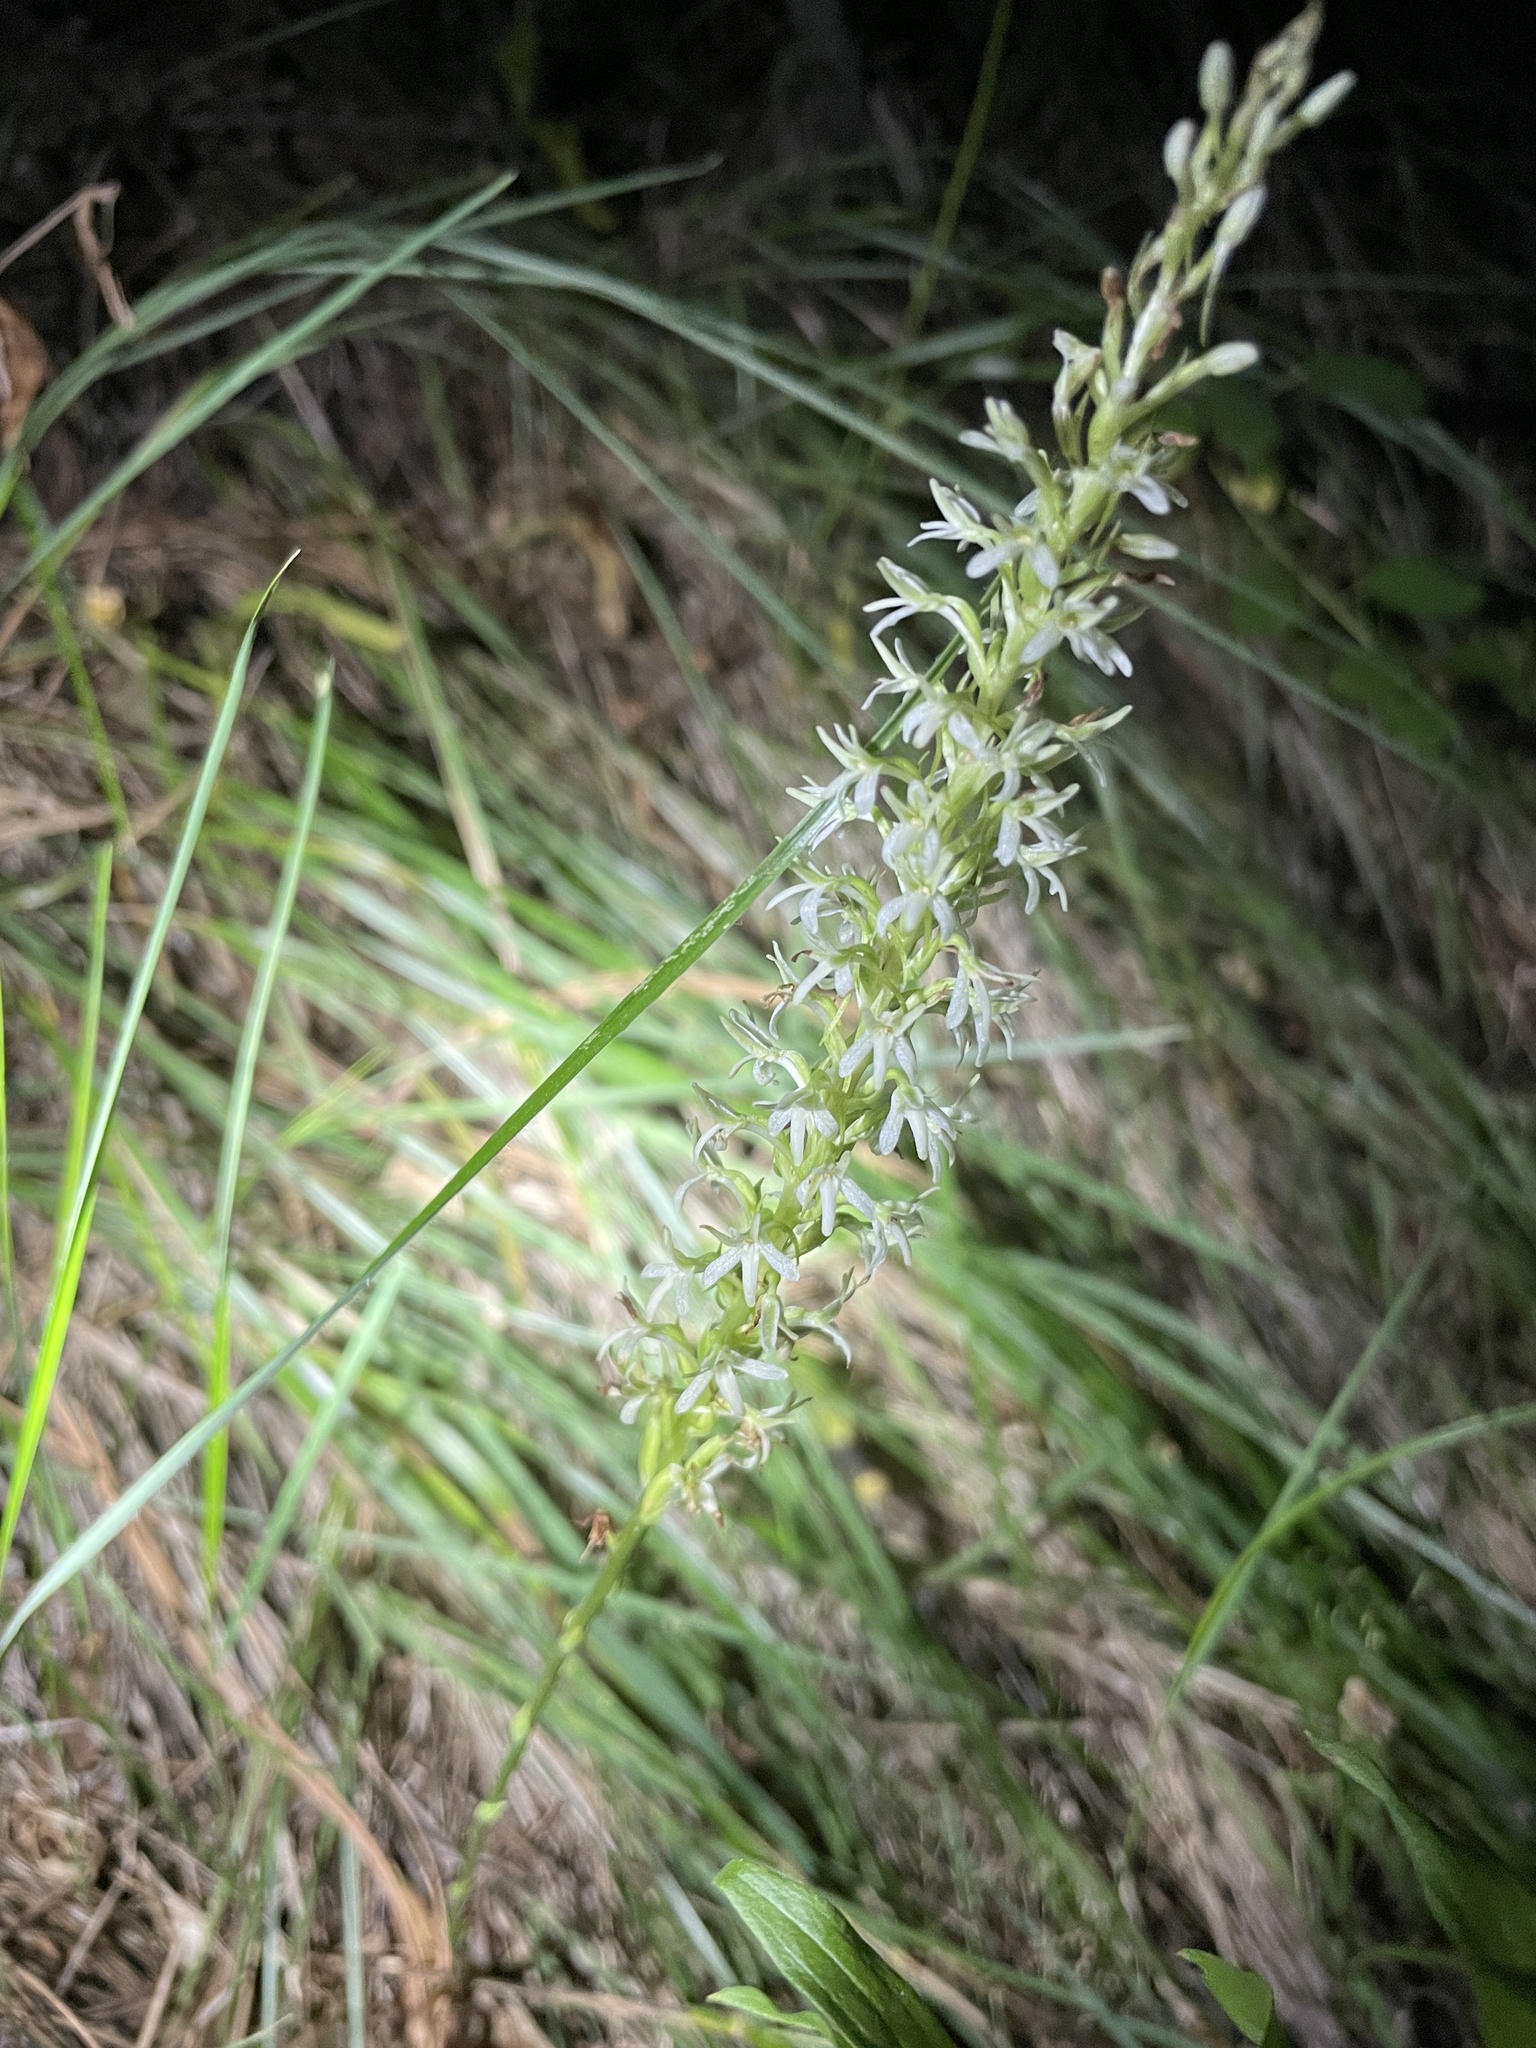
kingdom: Plantae
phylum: Tracheophyta
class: Liliopsida
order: Asparagales
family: Orchidaceae
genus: Platanthera
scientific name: Platanthera elegans
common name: Coast piperia
